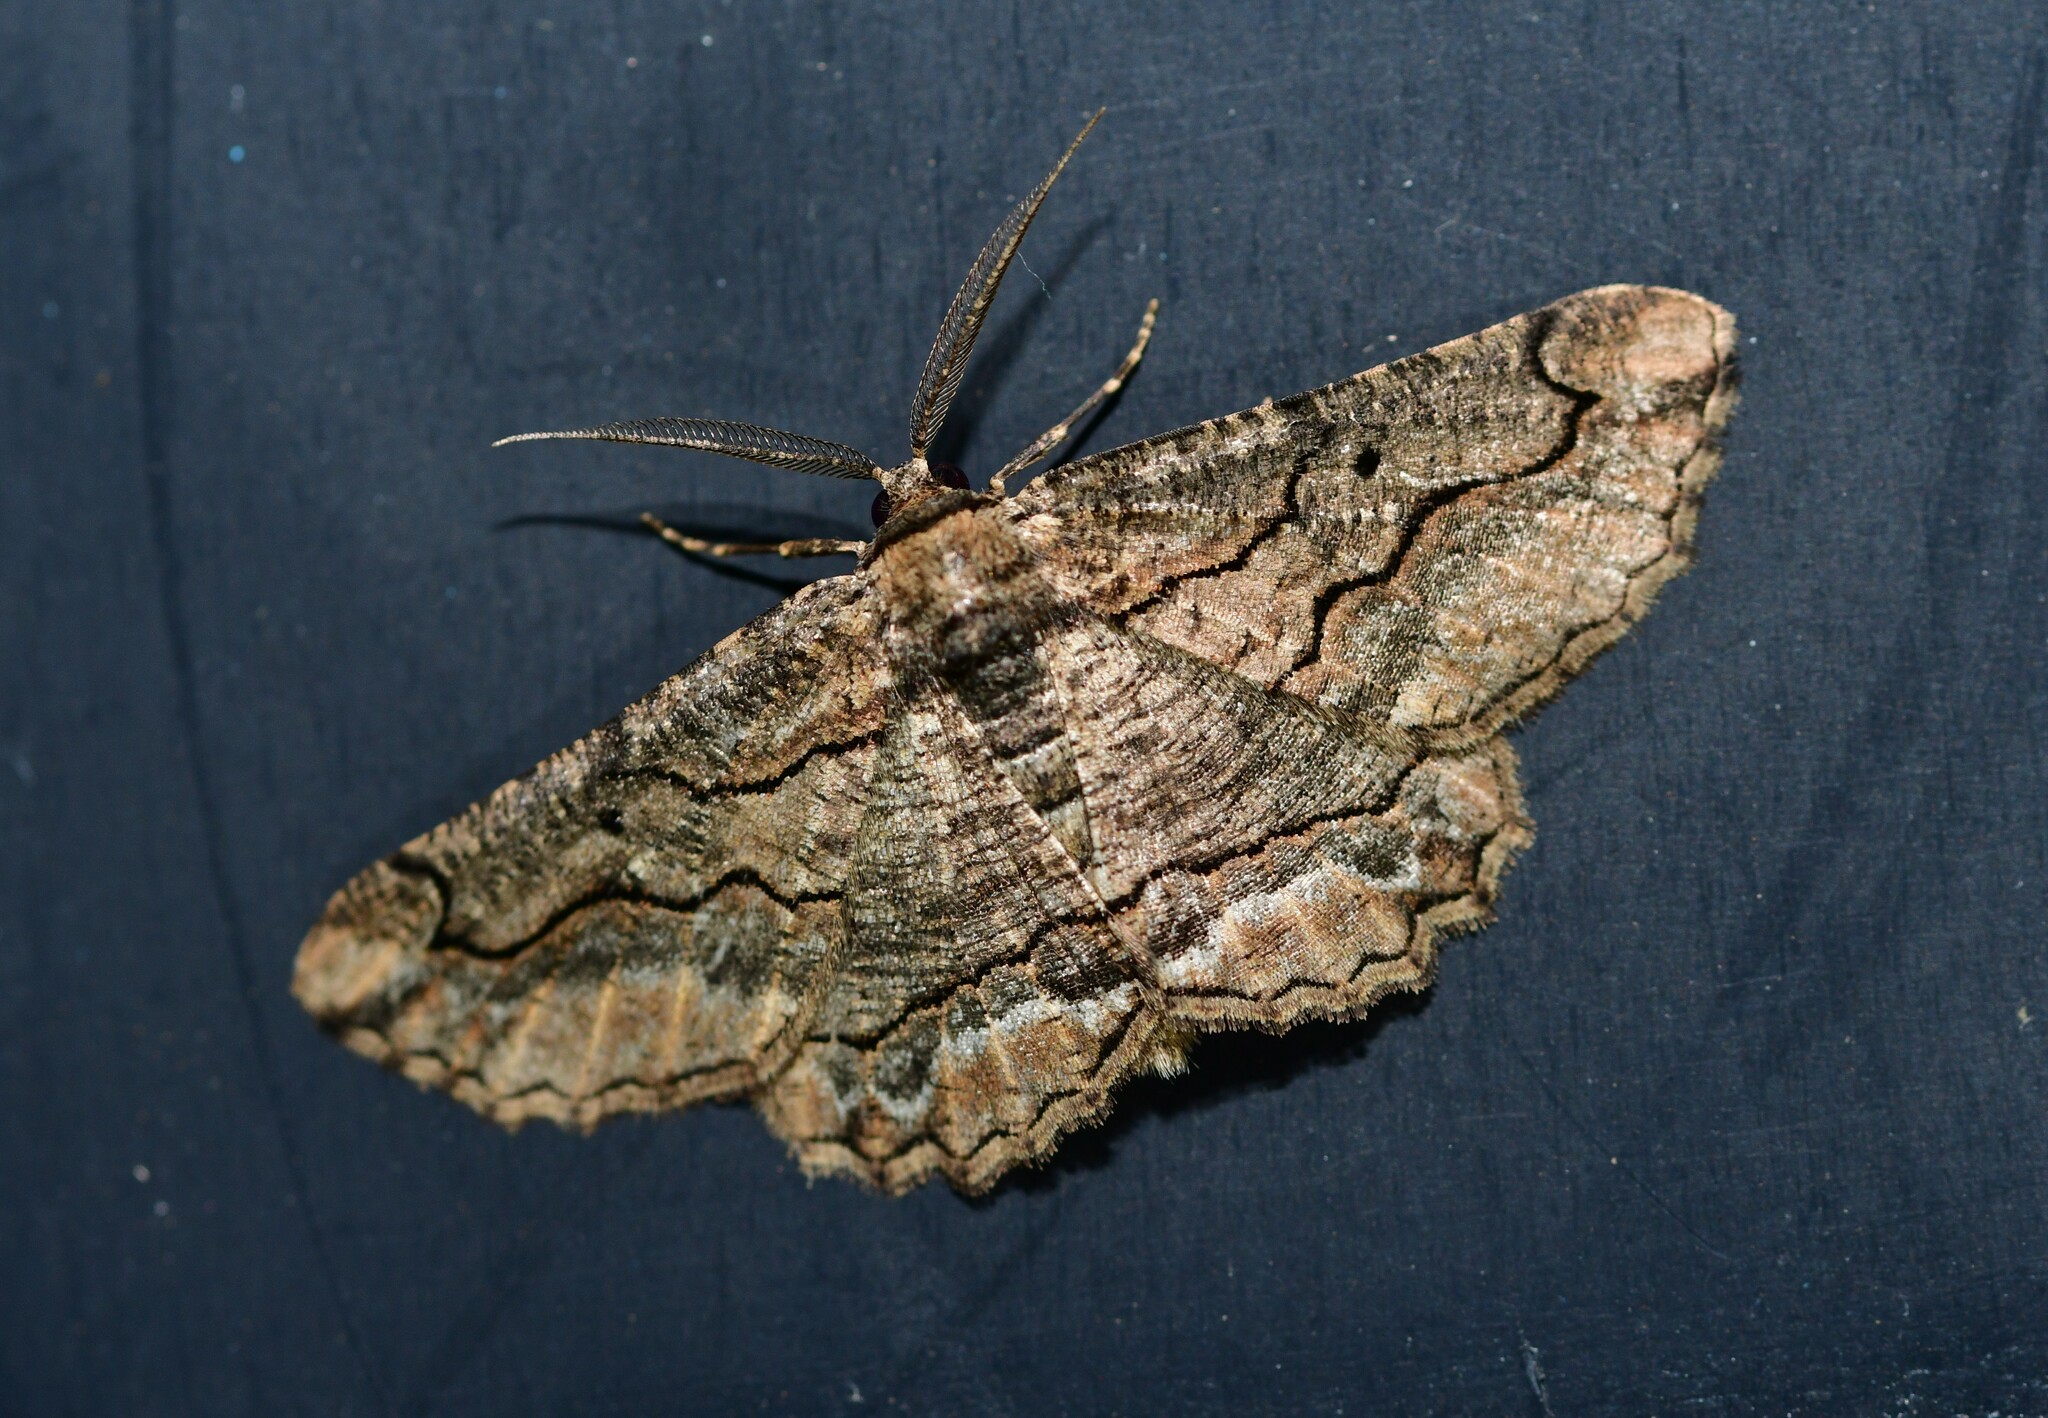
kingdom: Animalia
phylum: Arthropoda
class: Insecta
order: Lepidoptera
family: Geometridae
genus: Menophra
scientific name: Menophra japygiaria
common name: Brassy waved umber
